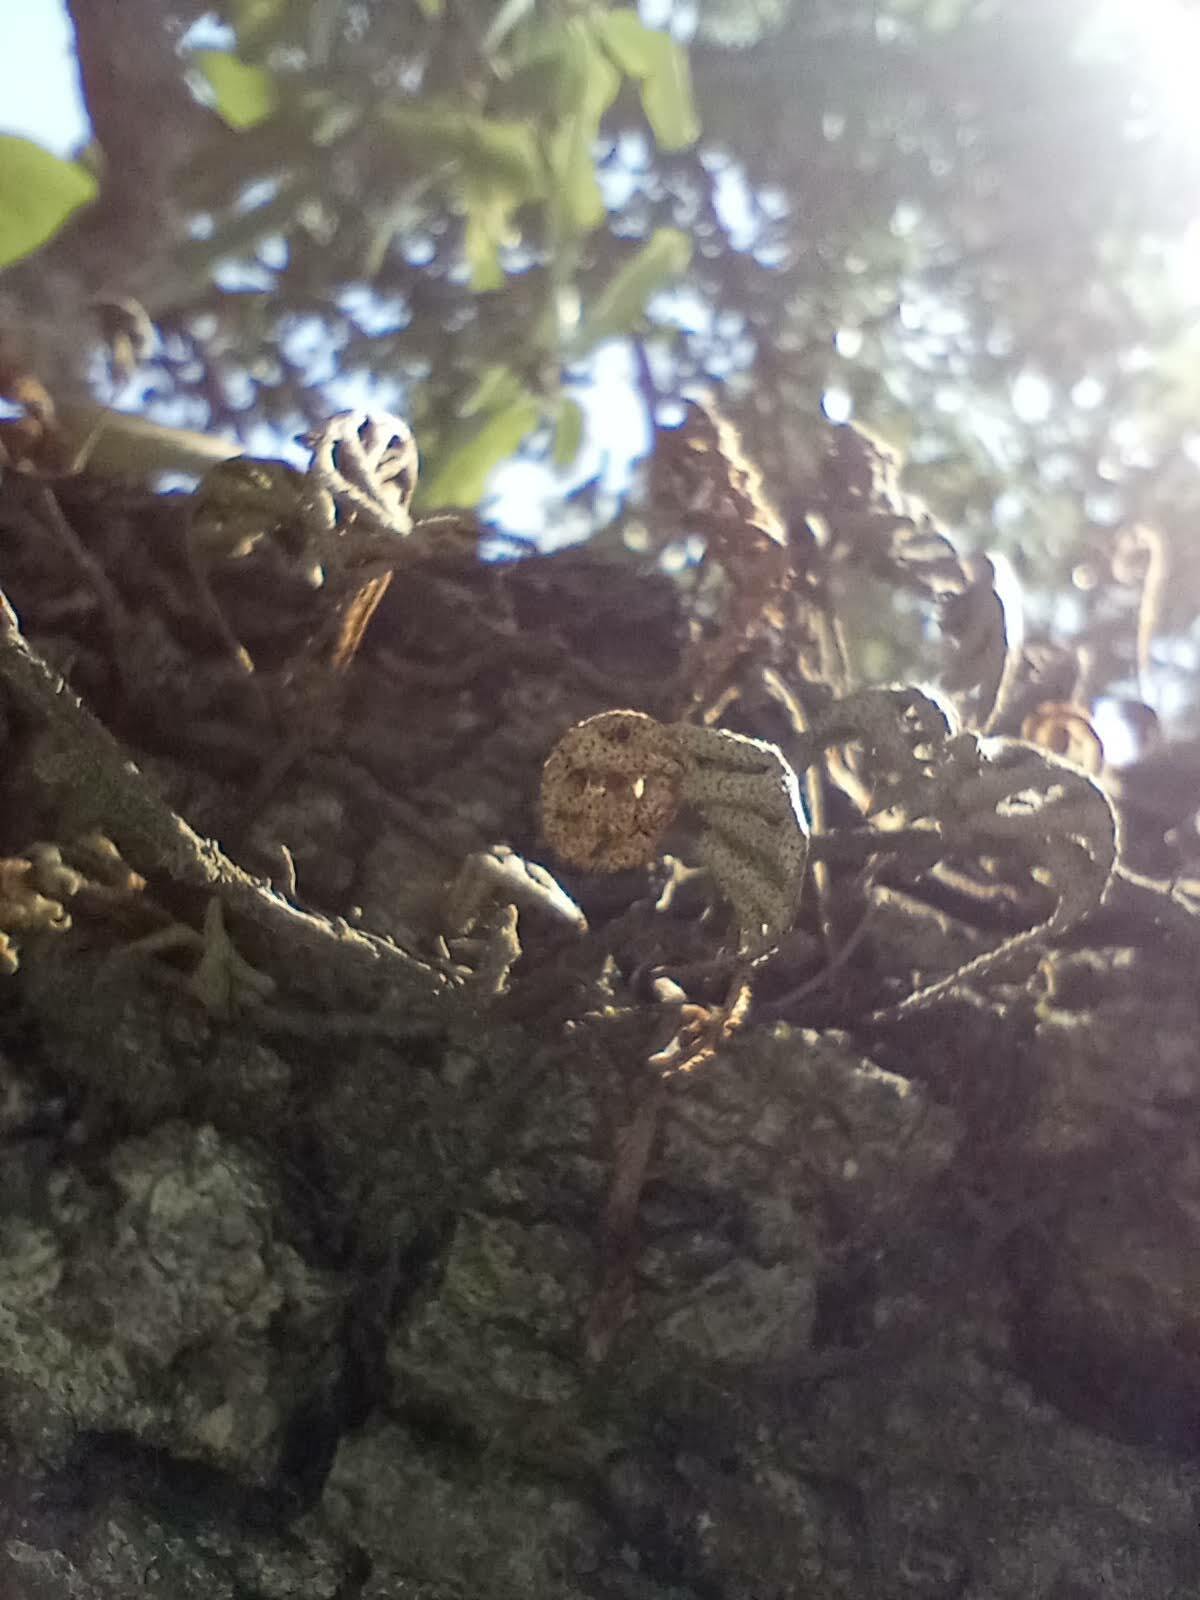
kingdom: Plantae
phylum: Tracheophyta
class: Polypodiopsida
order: Polypodiales
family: Polypodiaceae
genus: Pleopeltis
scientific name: Pleopeltis michauxiana
